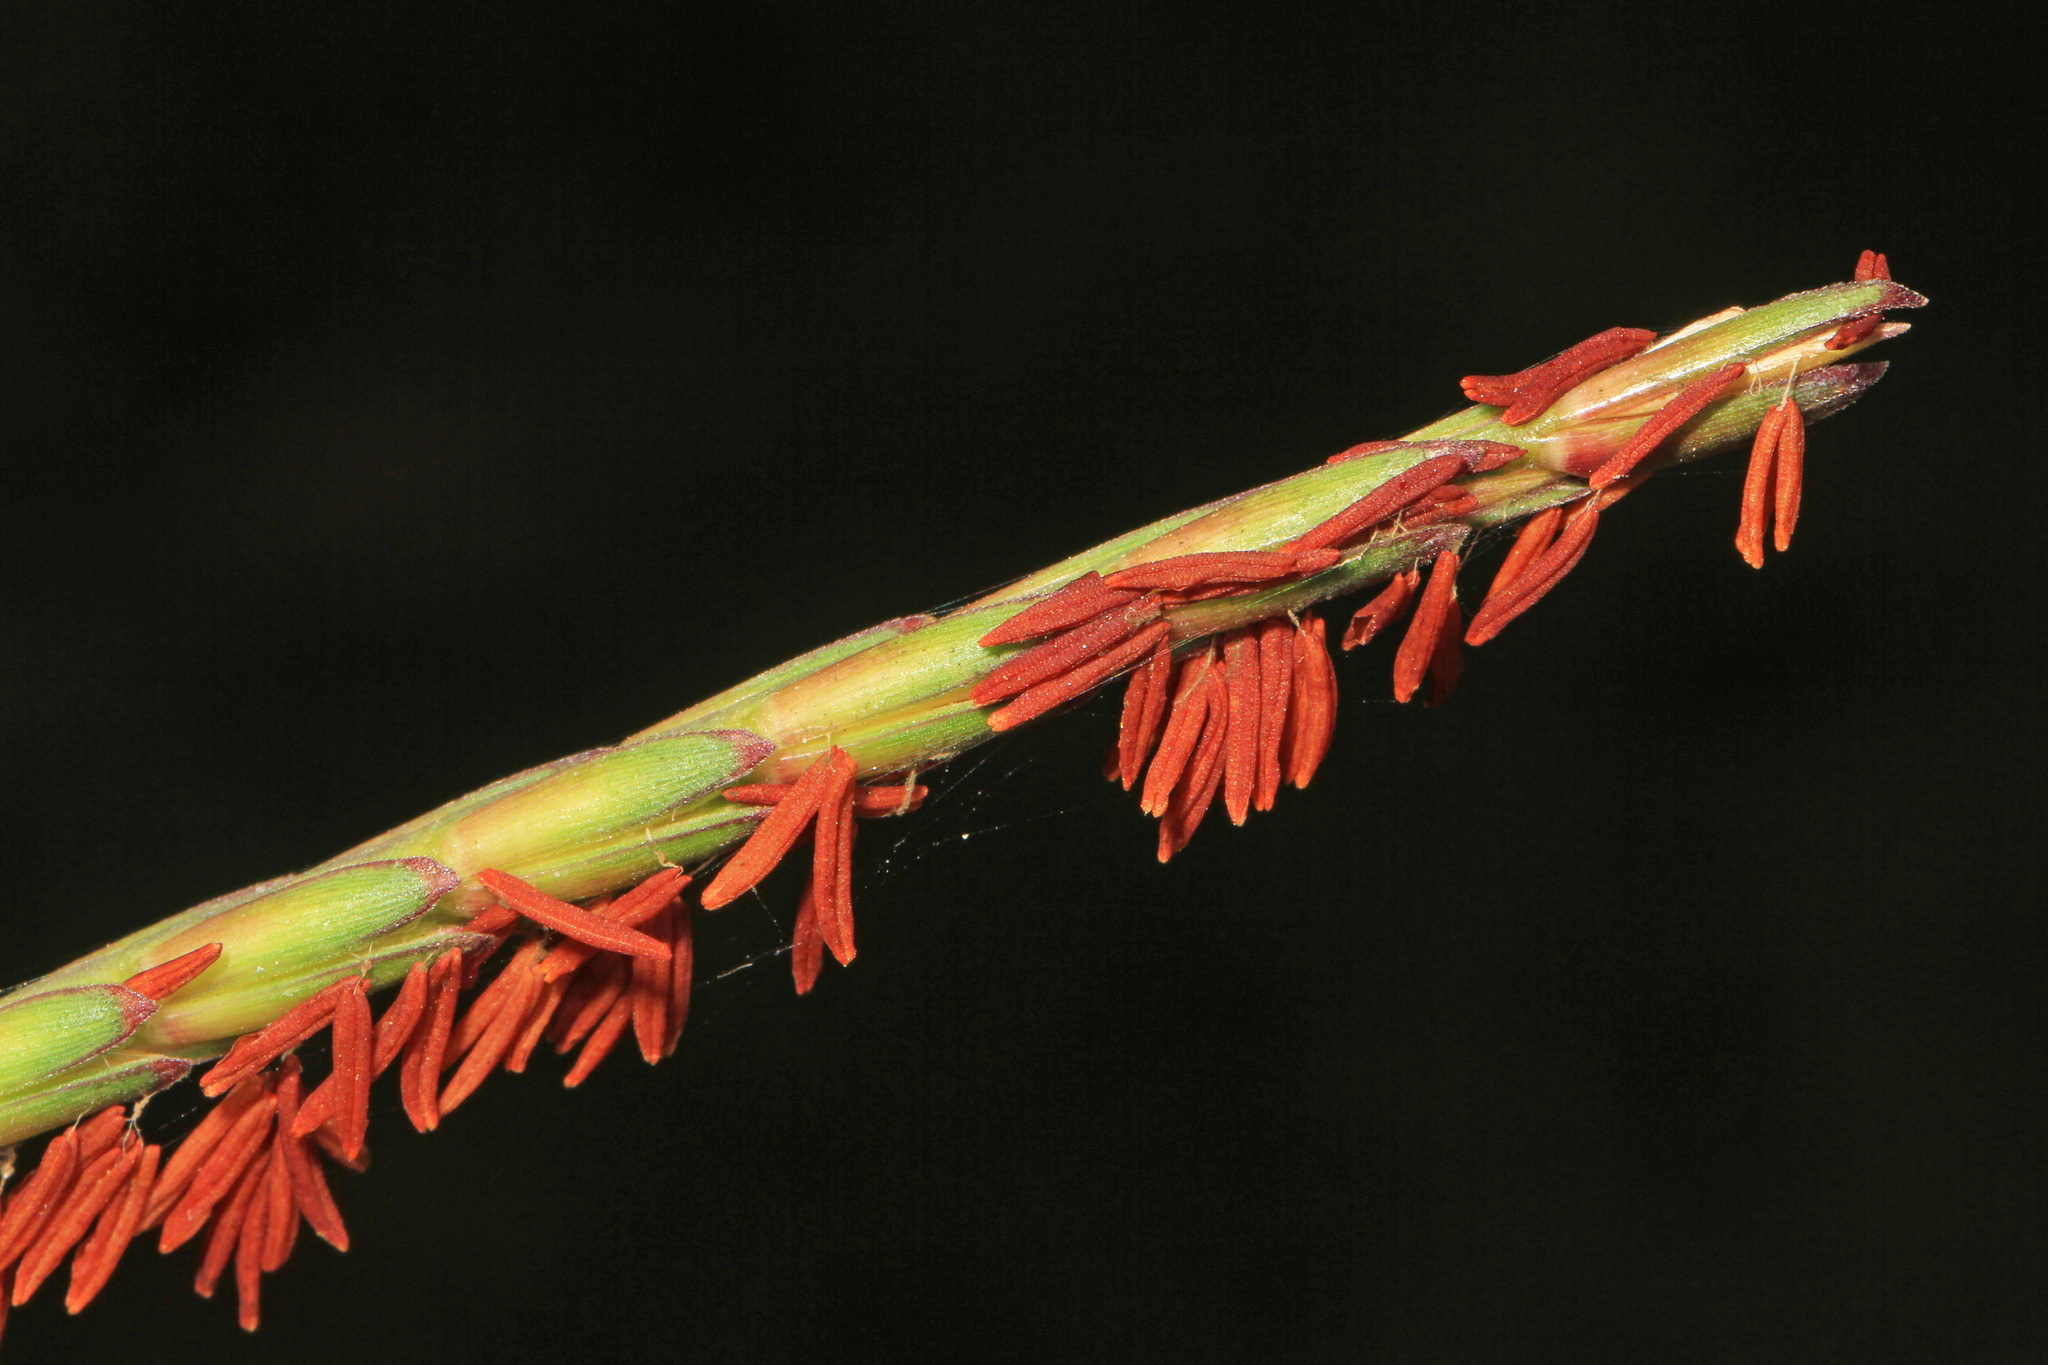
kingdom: Plantae
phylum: Tracheophyta
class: Liliopsida
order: Poales
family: Poaceae
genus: Tripsacum
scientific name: Tripsacum dactyloides
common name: Buffalo-grass
